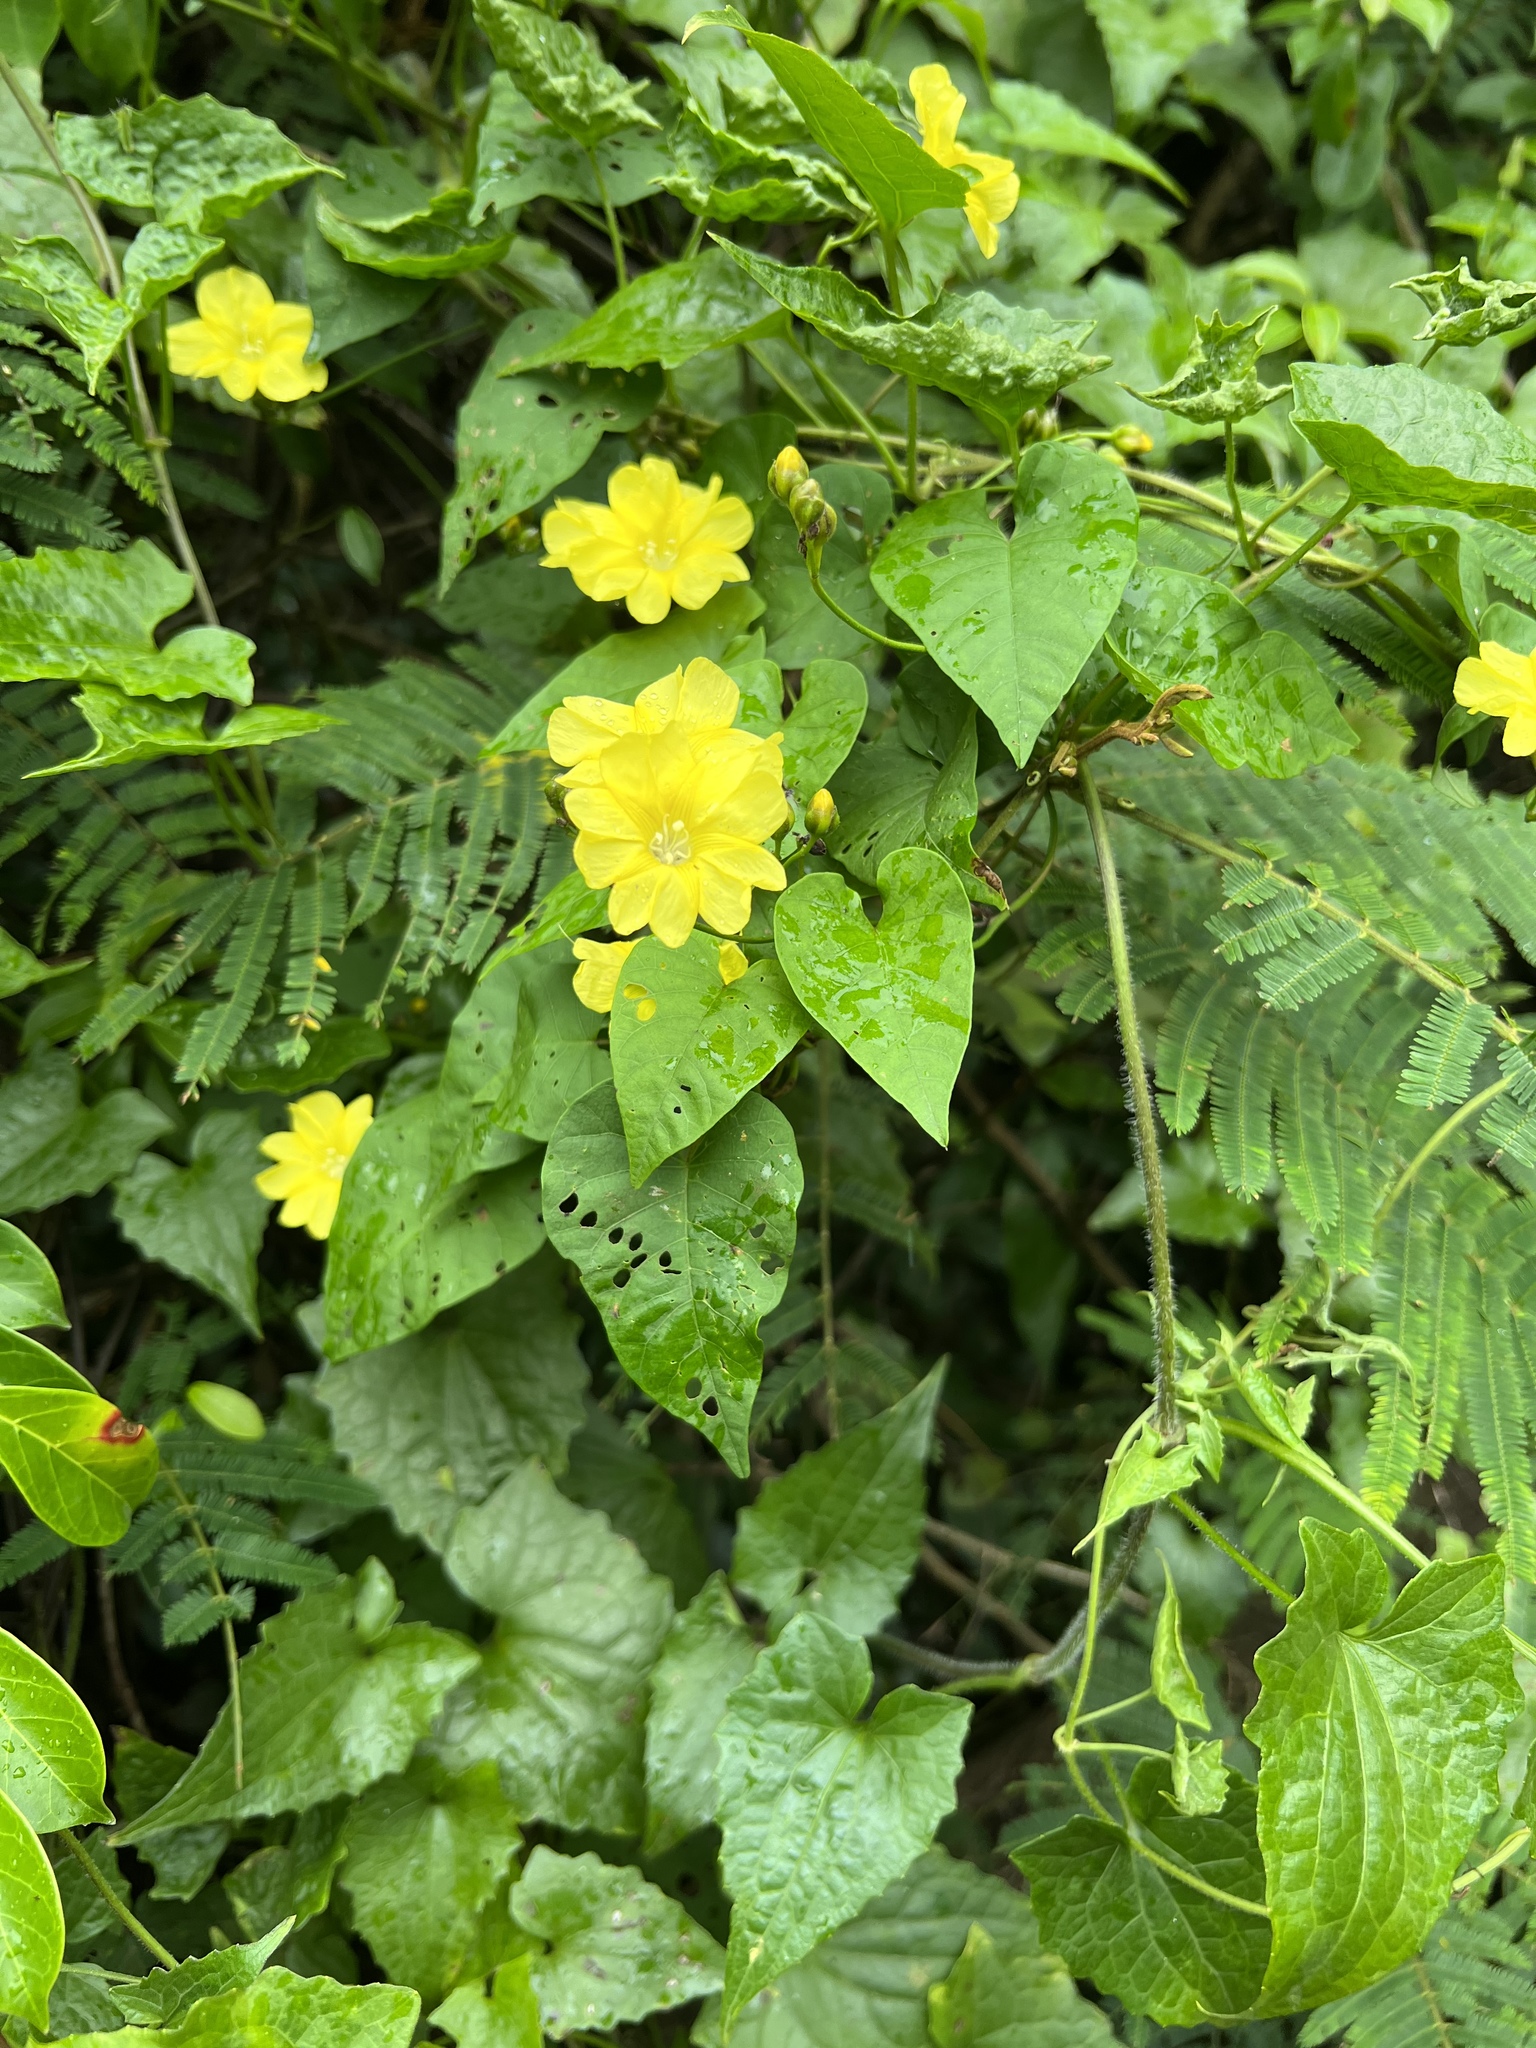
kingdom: Plantae
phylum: Tracheophyta
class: Magnoliopsida
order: Solanales
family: Convolvulaceae
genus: Merremia
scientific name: Merremia gemella
